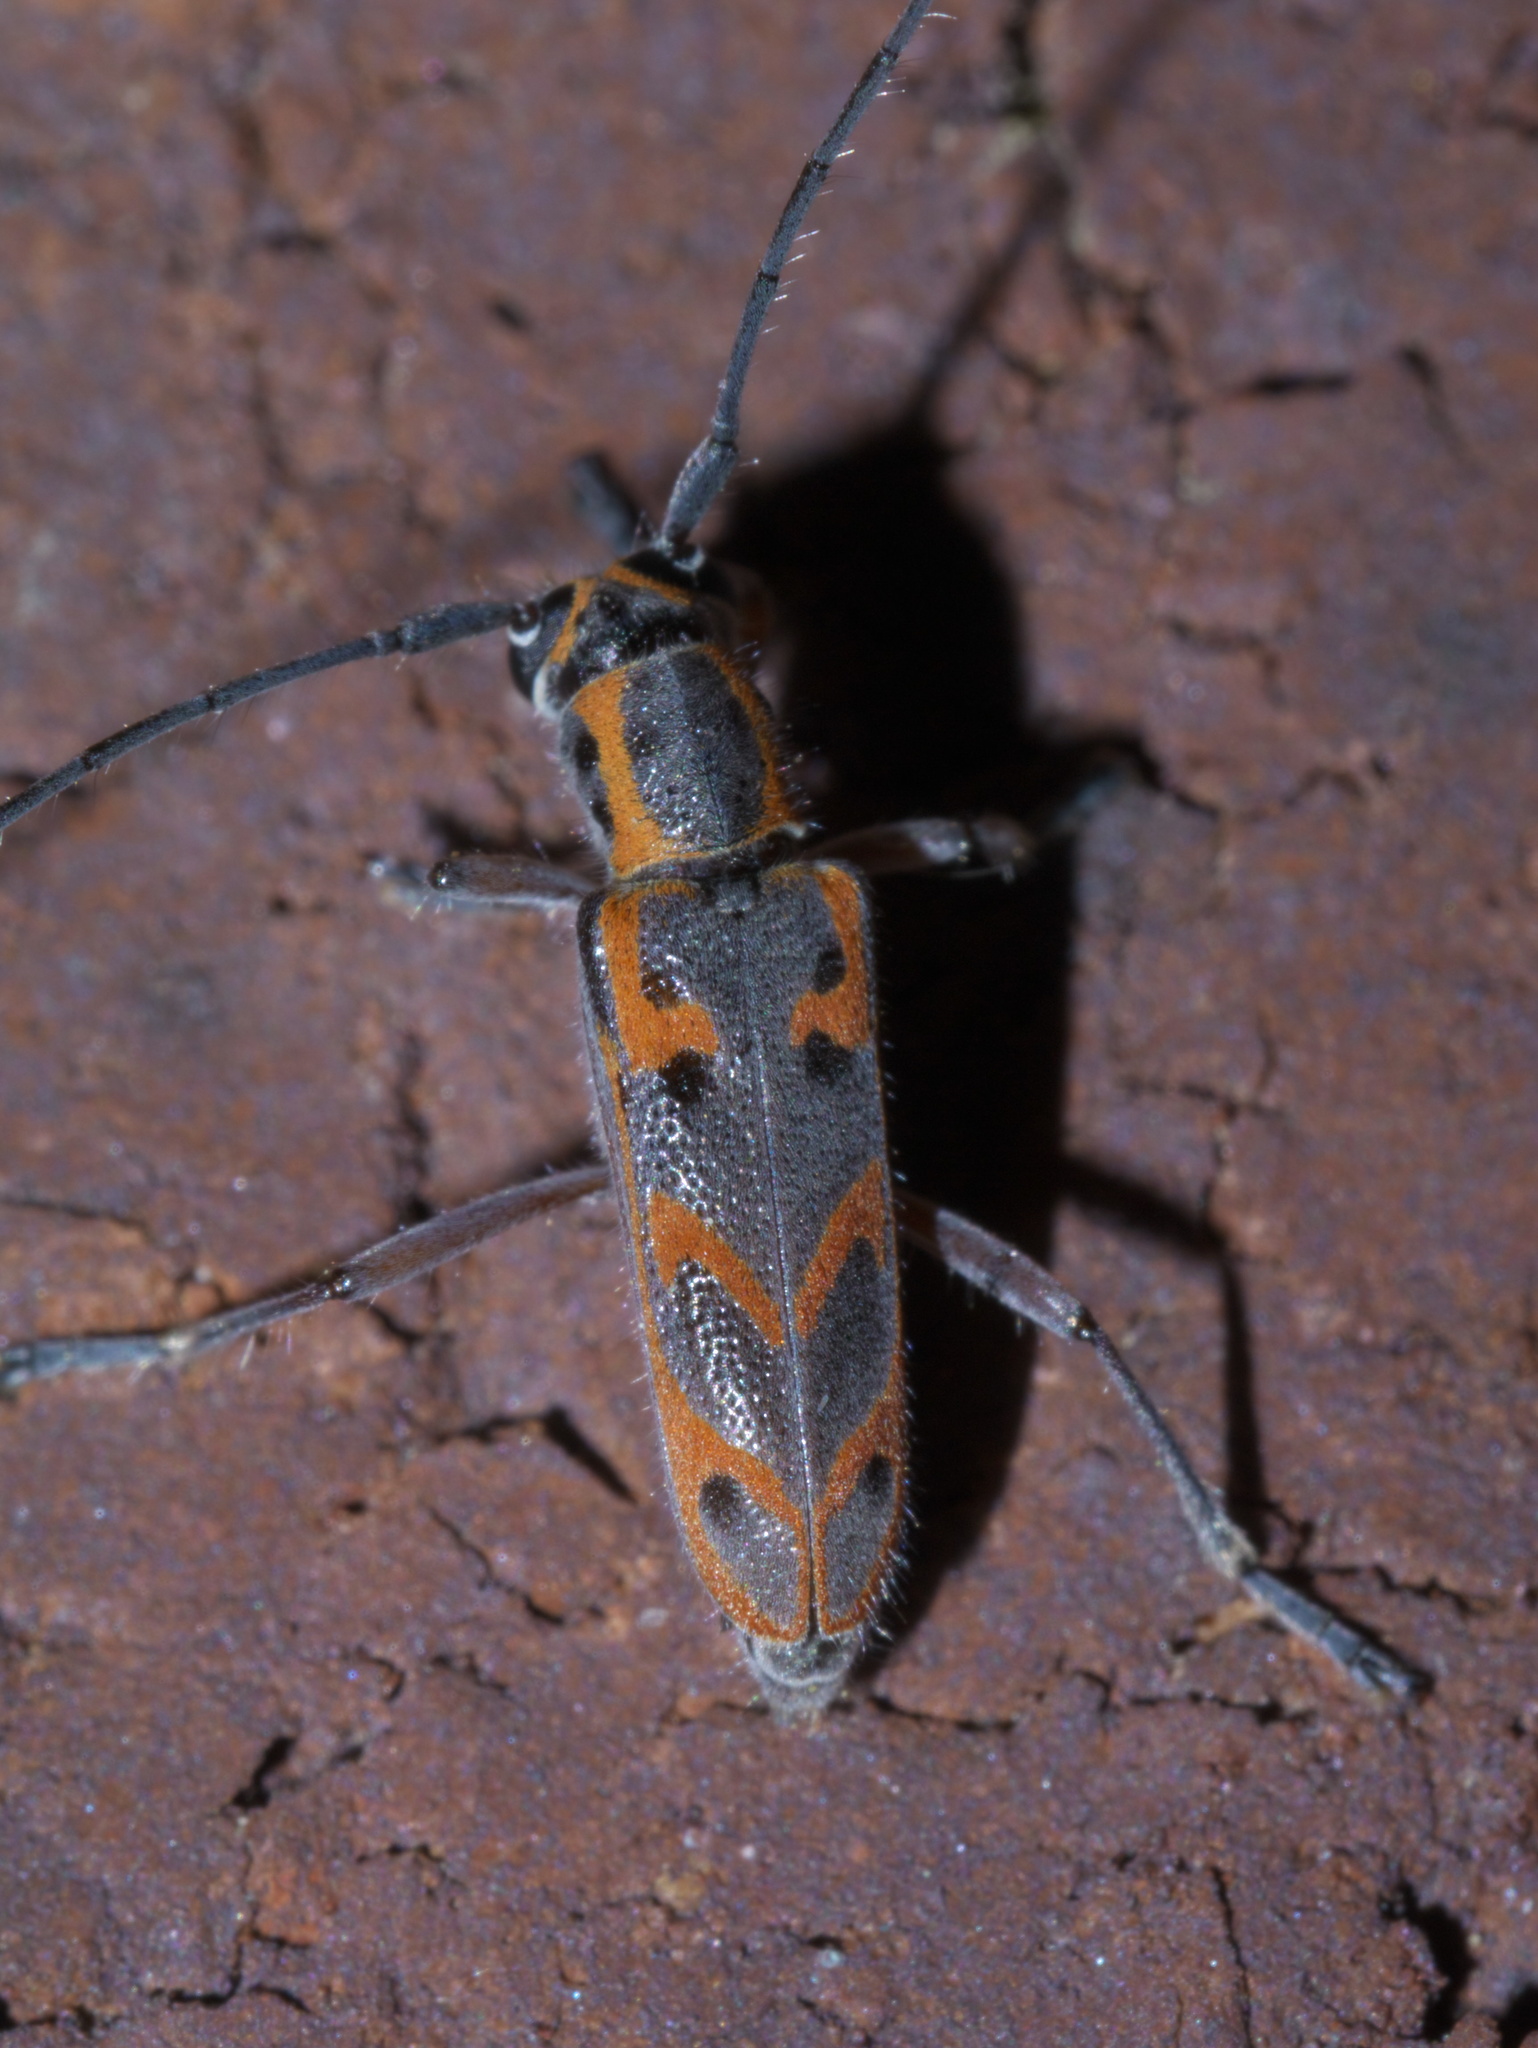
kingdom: Animalia
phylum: Arthropoda
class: Insecta
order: Coleoptera
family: Cerambycidae
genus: Saperda
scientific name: Saperda tridentata
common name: Elm borer
